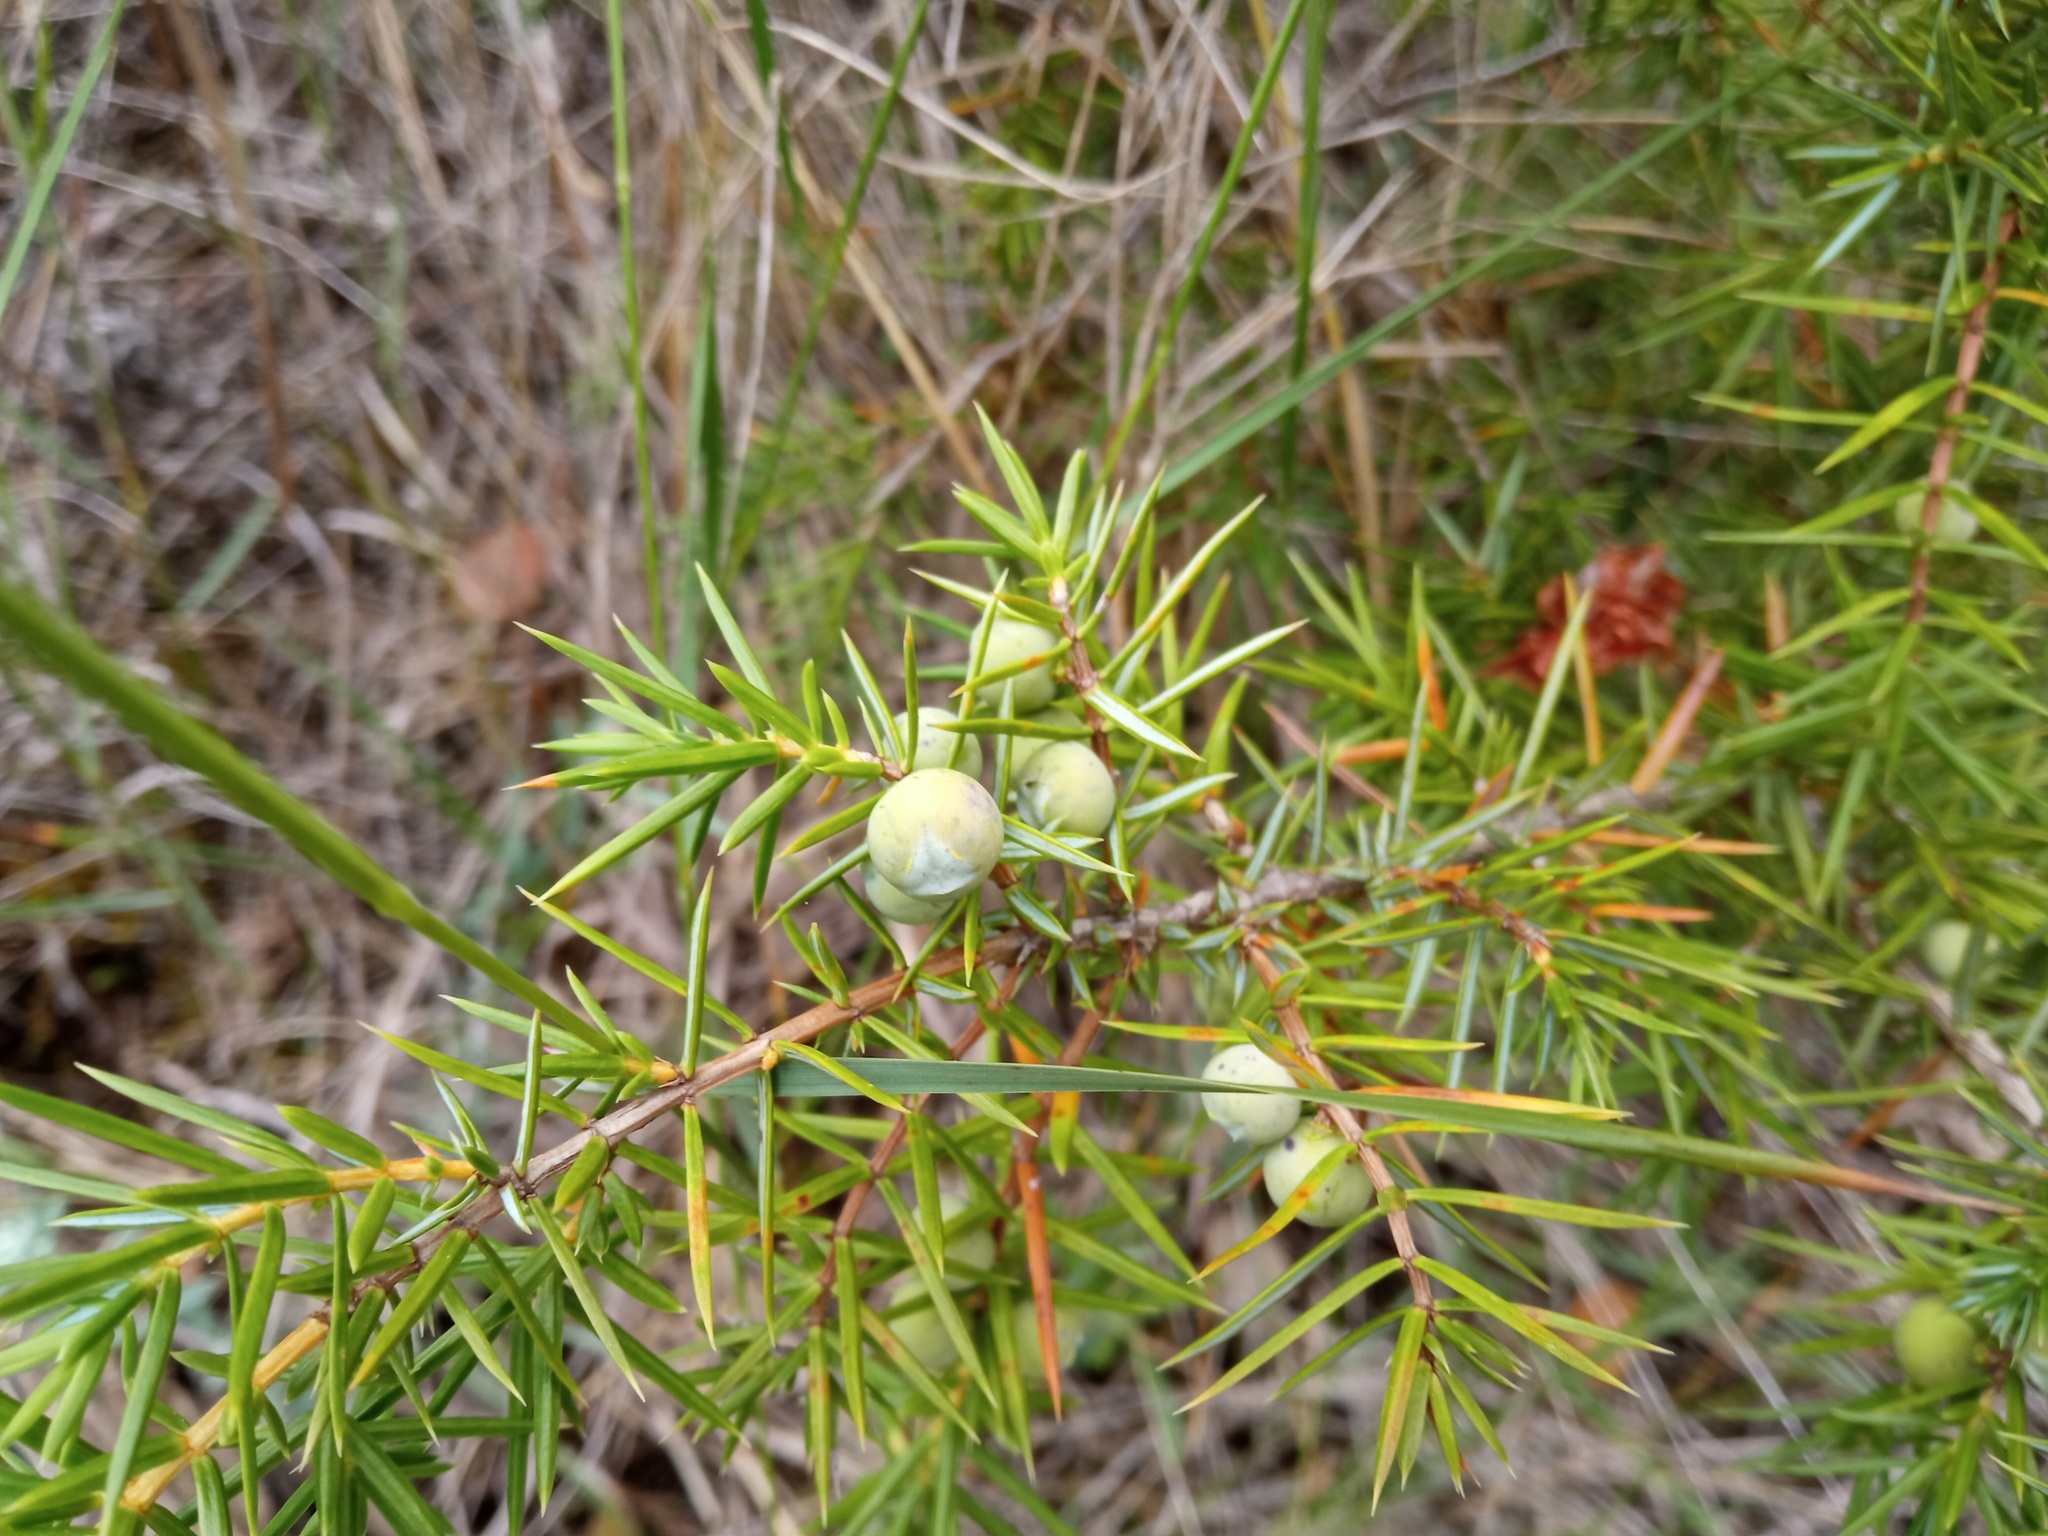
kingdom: Plantae
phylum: Tracheophyta
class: Pinopsida
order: Pinales
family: Cupressaceae
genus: Juniperus
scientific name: Juniperus communis
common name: Common juniper
